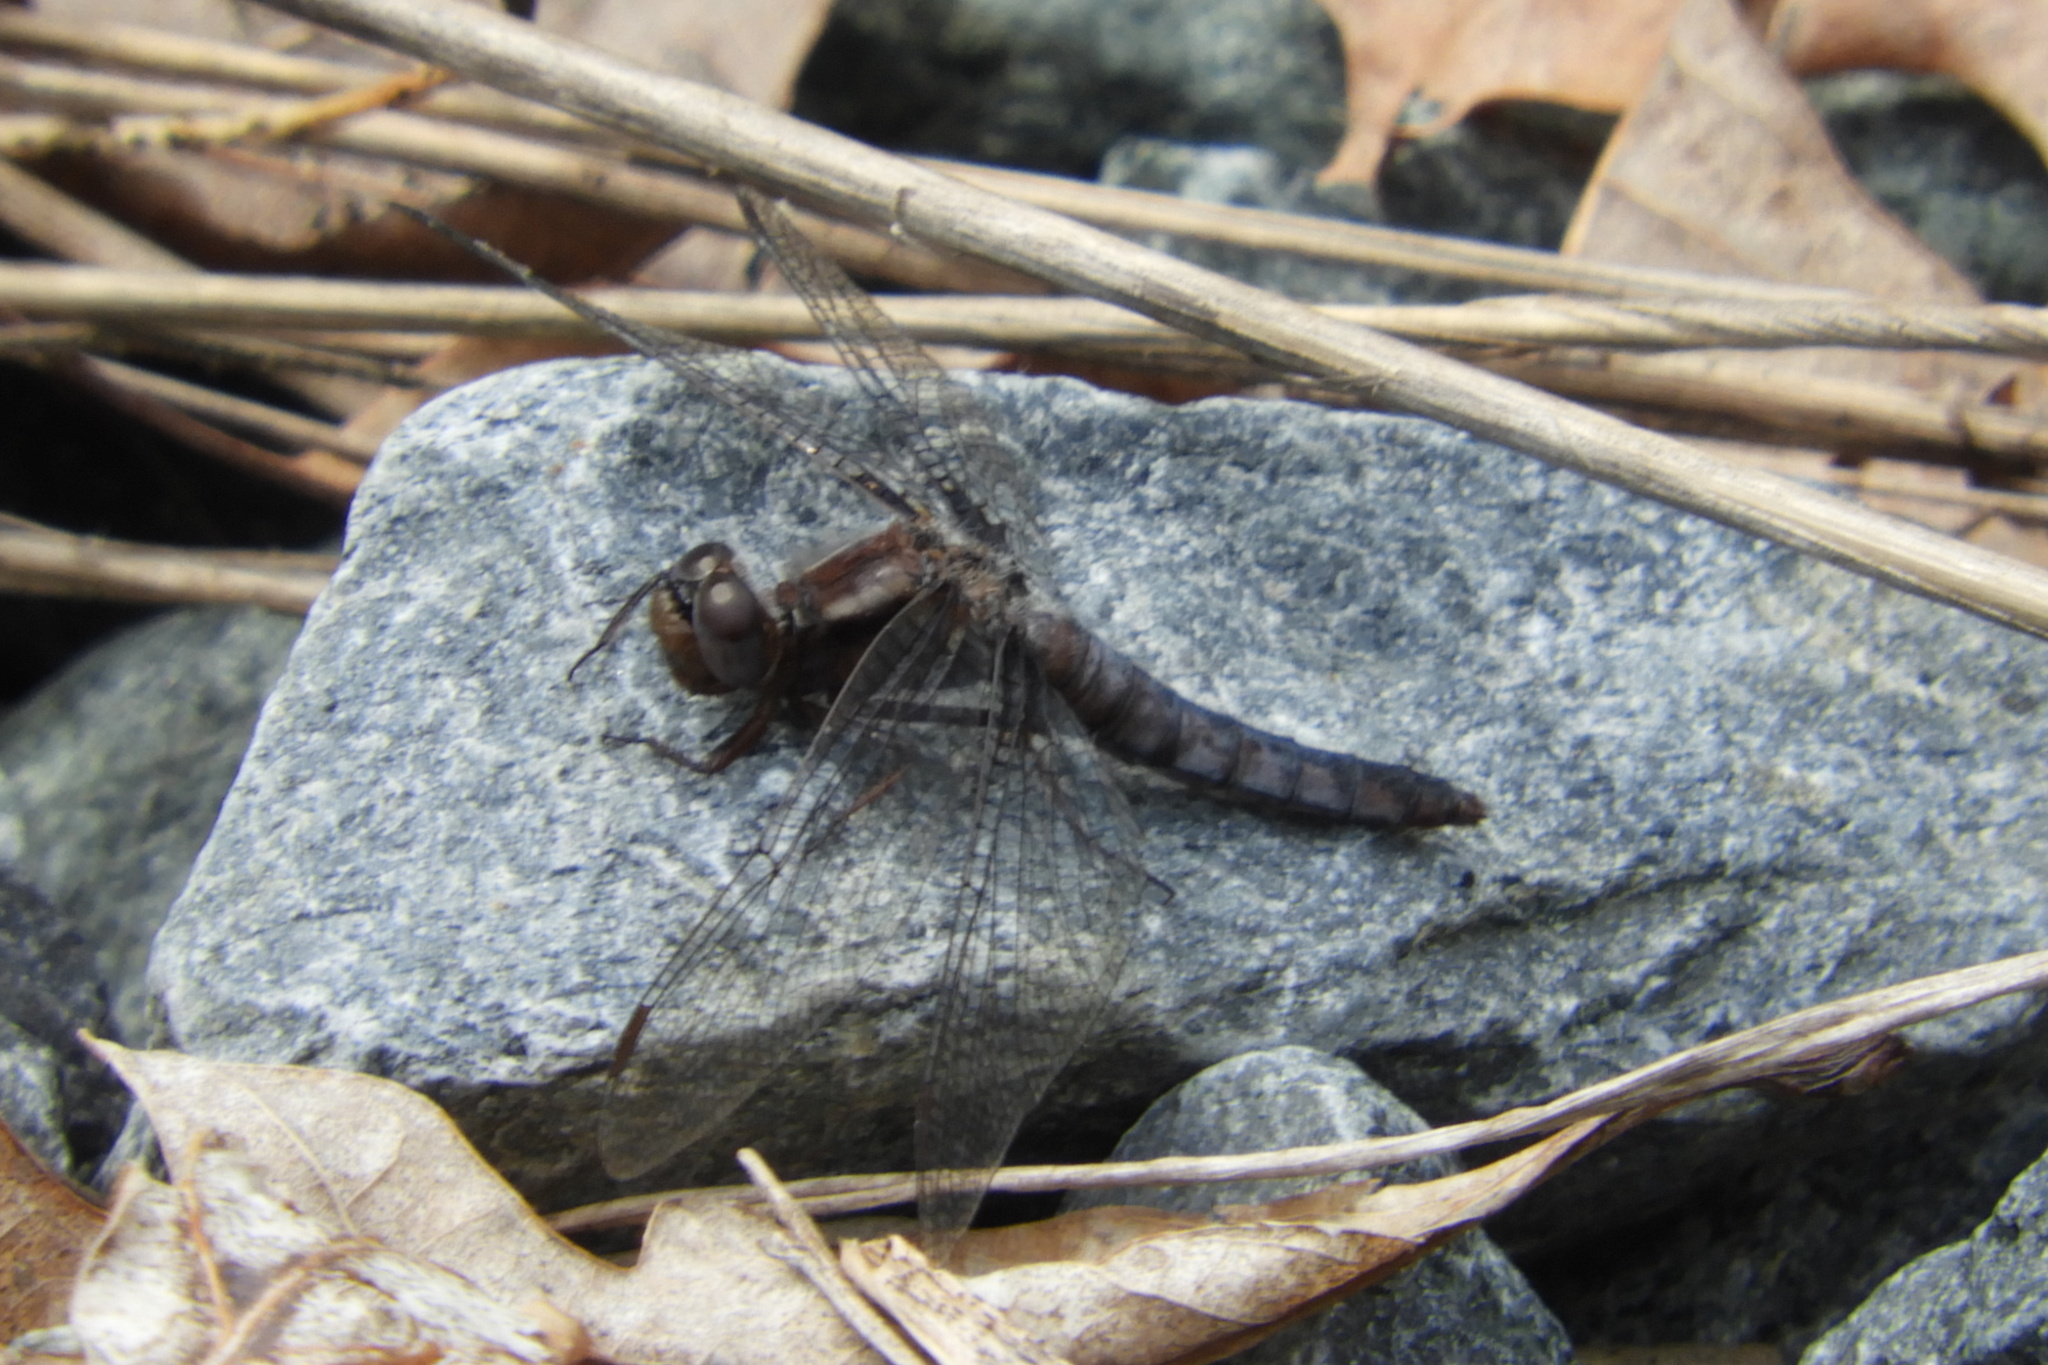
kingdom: Animalia
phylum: Arthropoda
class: Insecta
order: Odonata
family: Libellulidae
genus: Ladona
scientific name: Ladona deplanata
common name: Blue corporal
